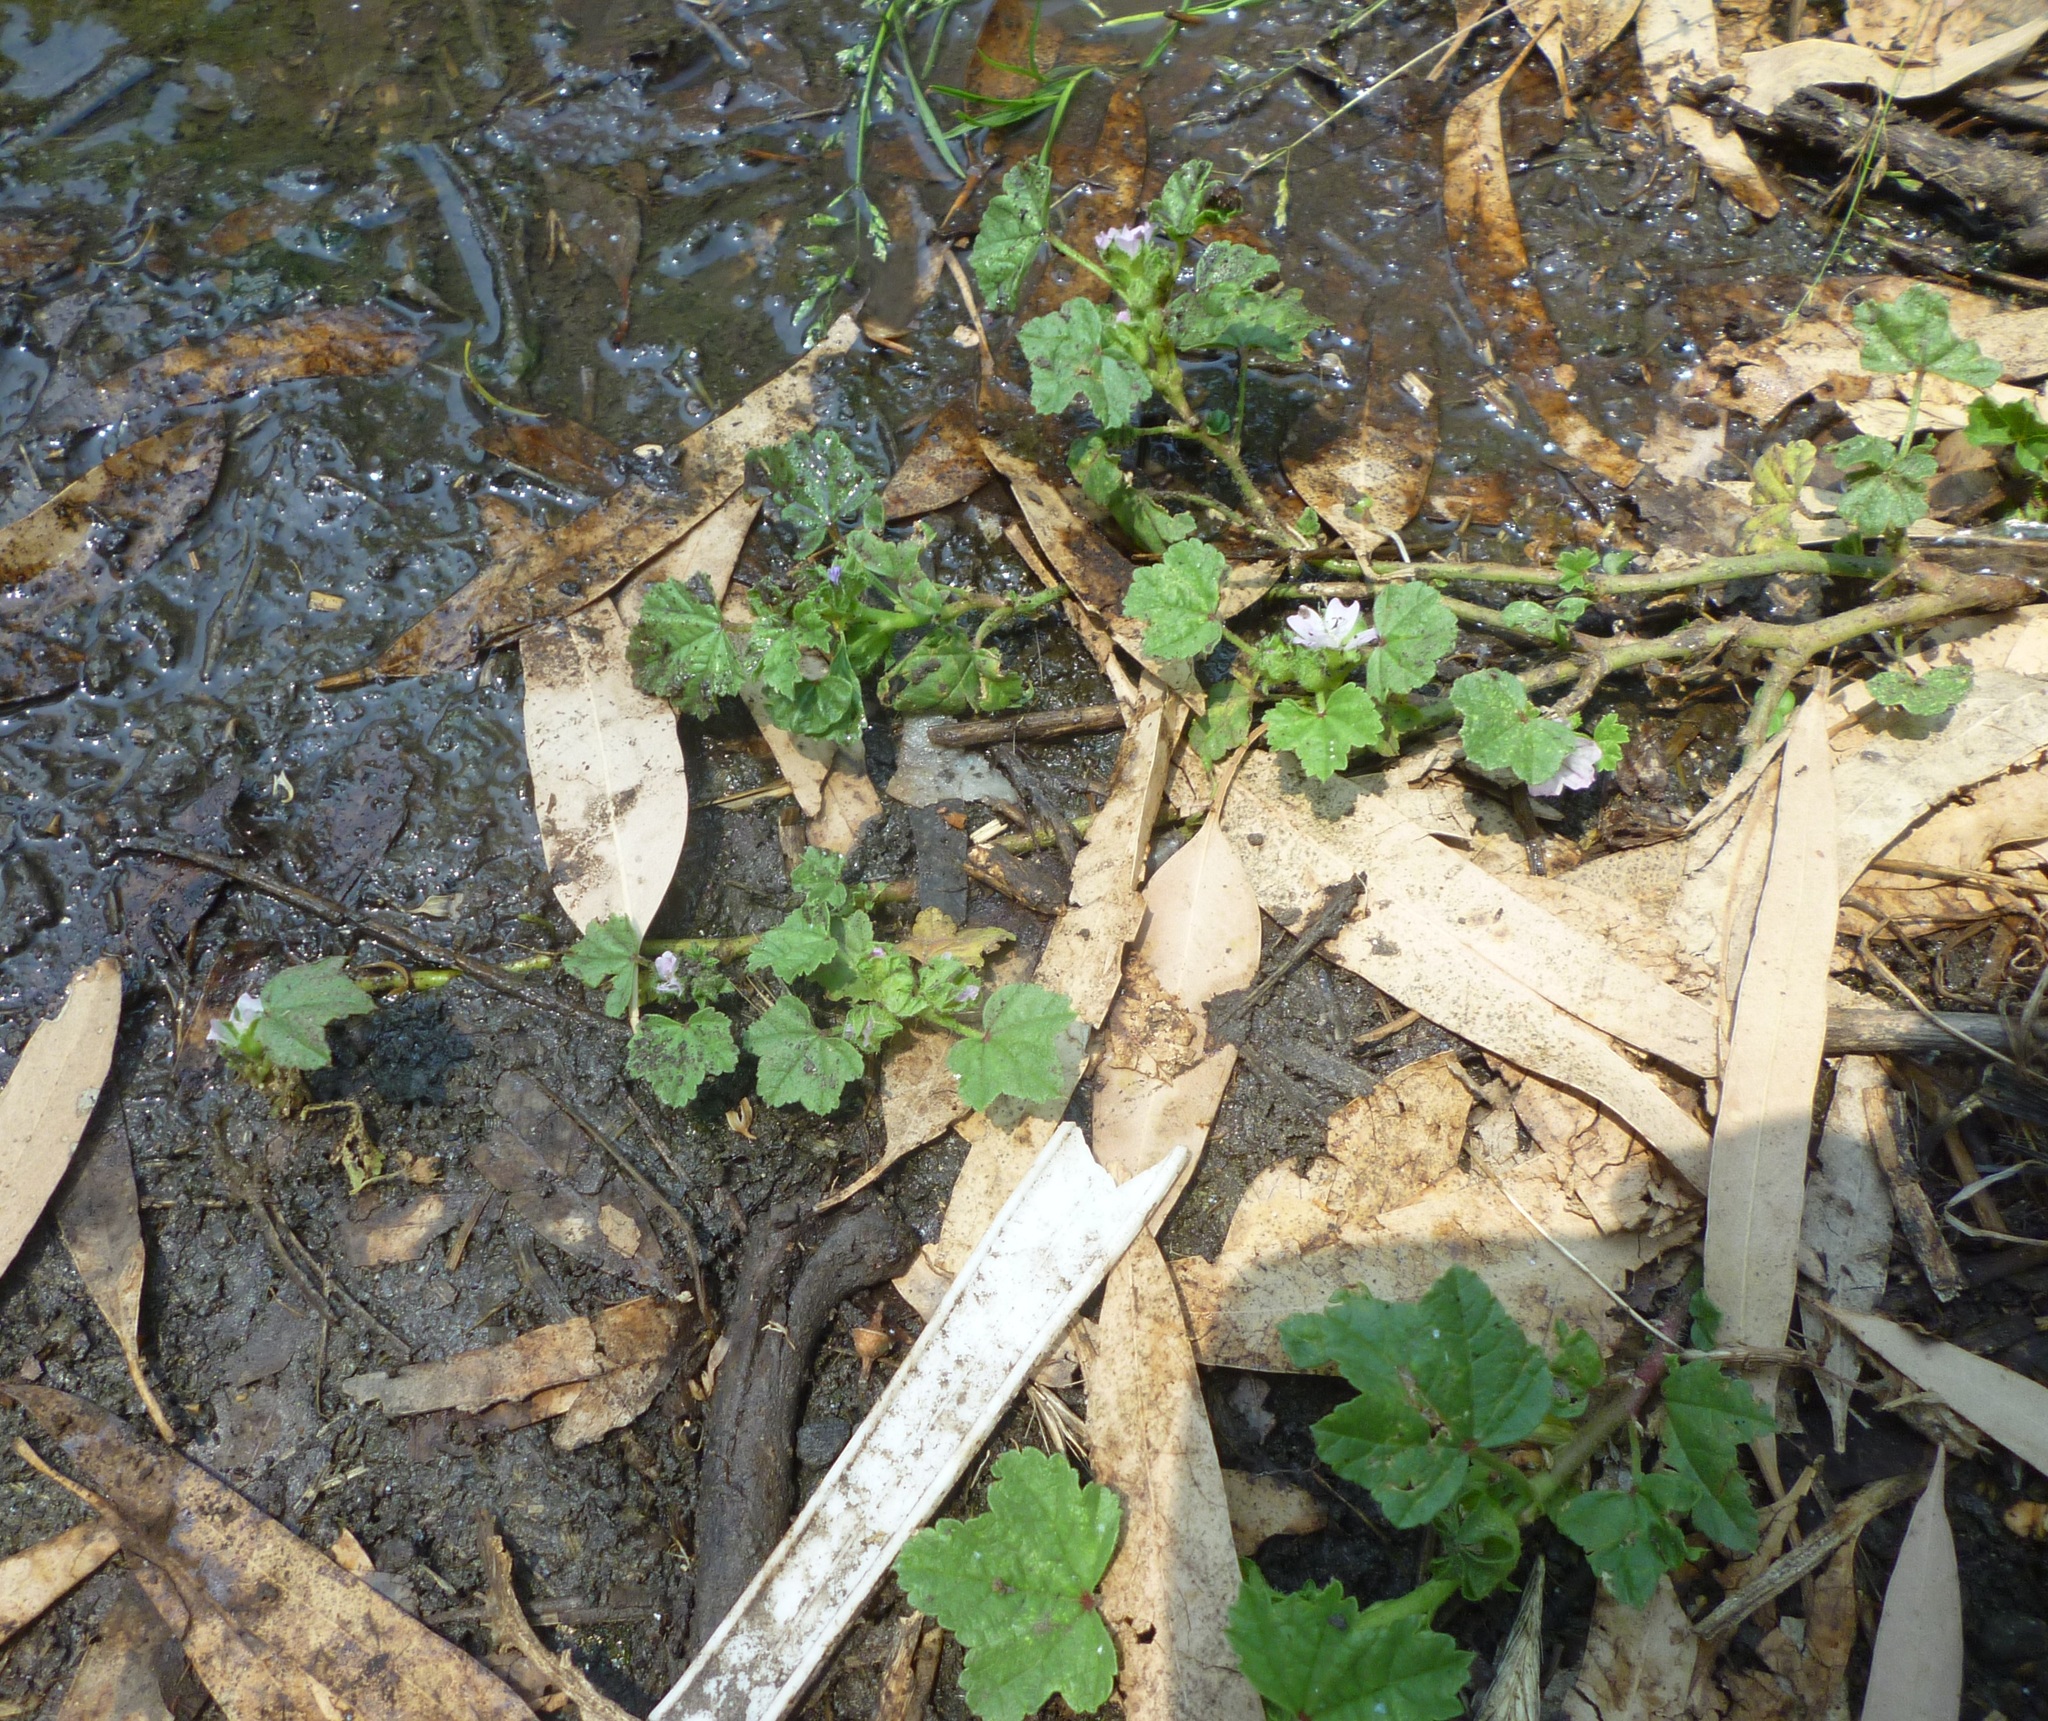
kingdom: Plantae
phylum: Tracheophyta
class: Magnoliopsida
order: Malvales
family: Malvaceae
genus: Malva
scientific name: Malva
